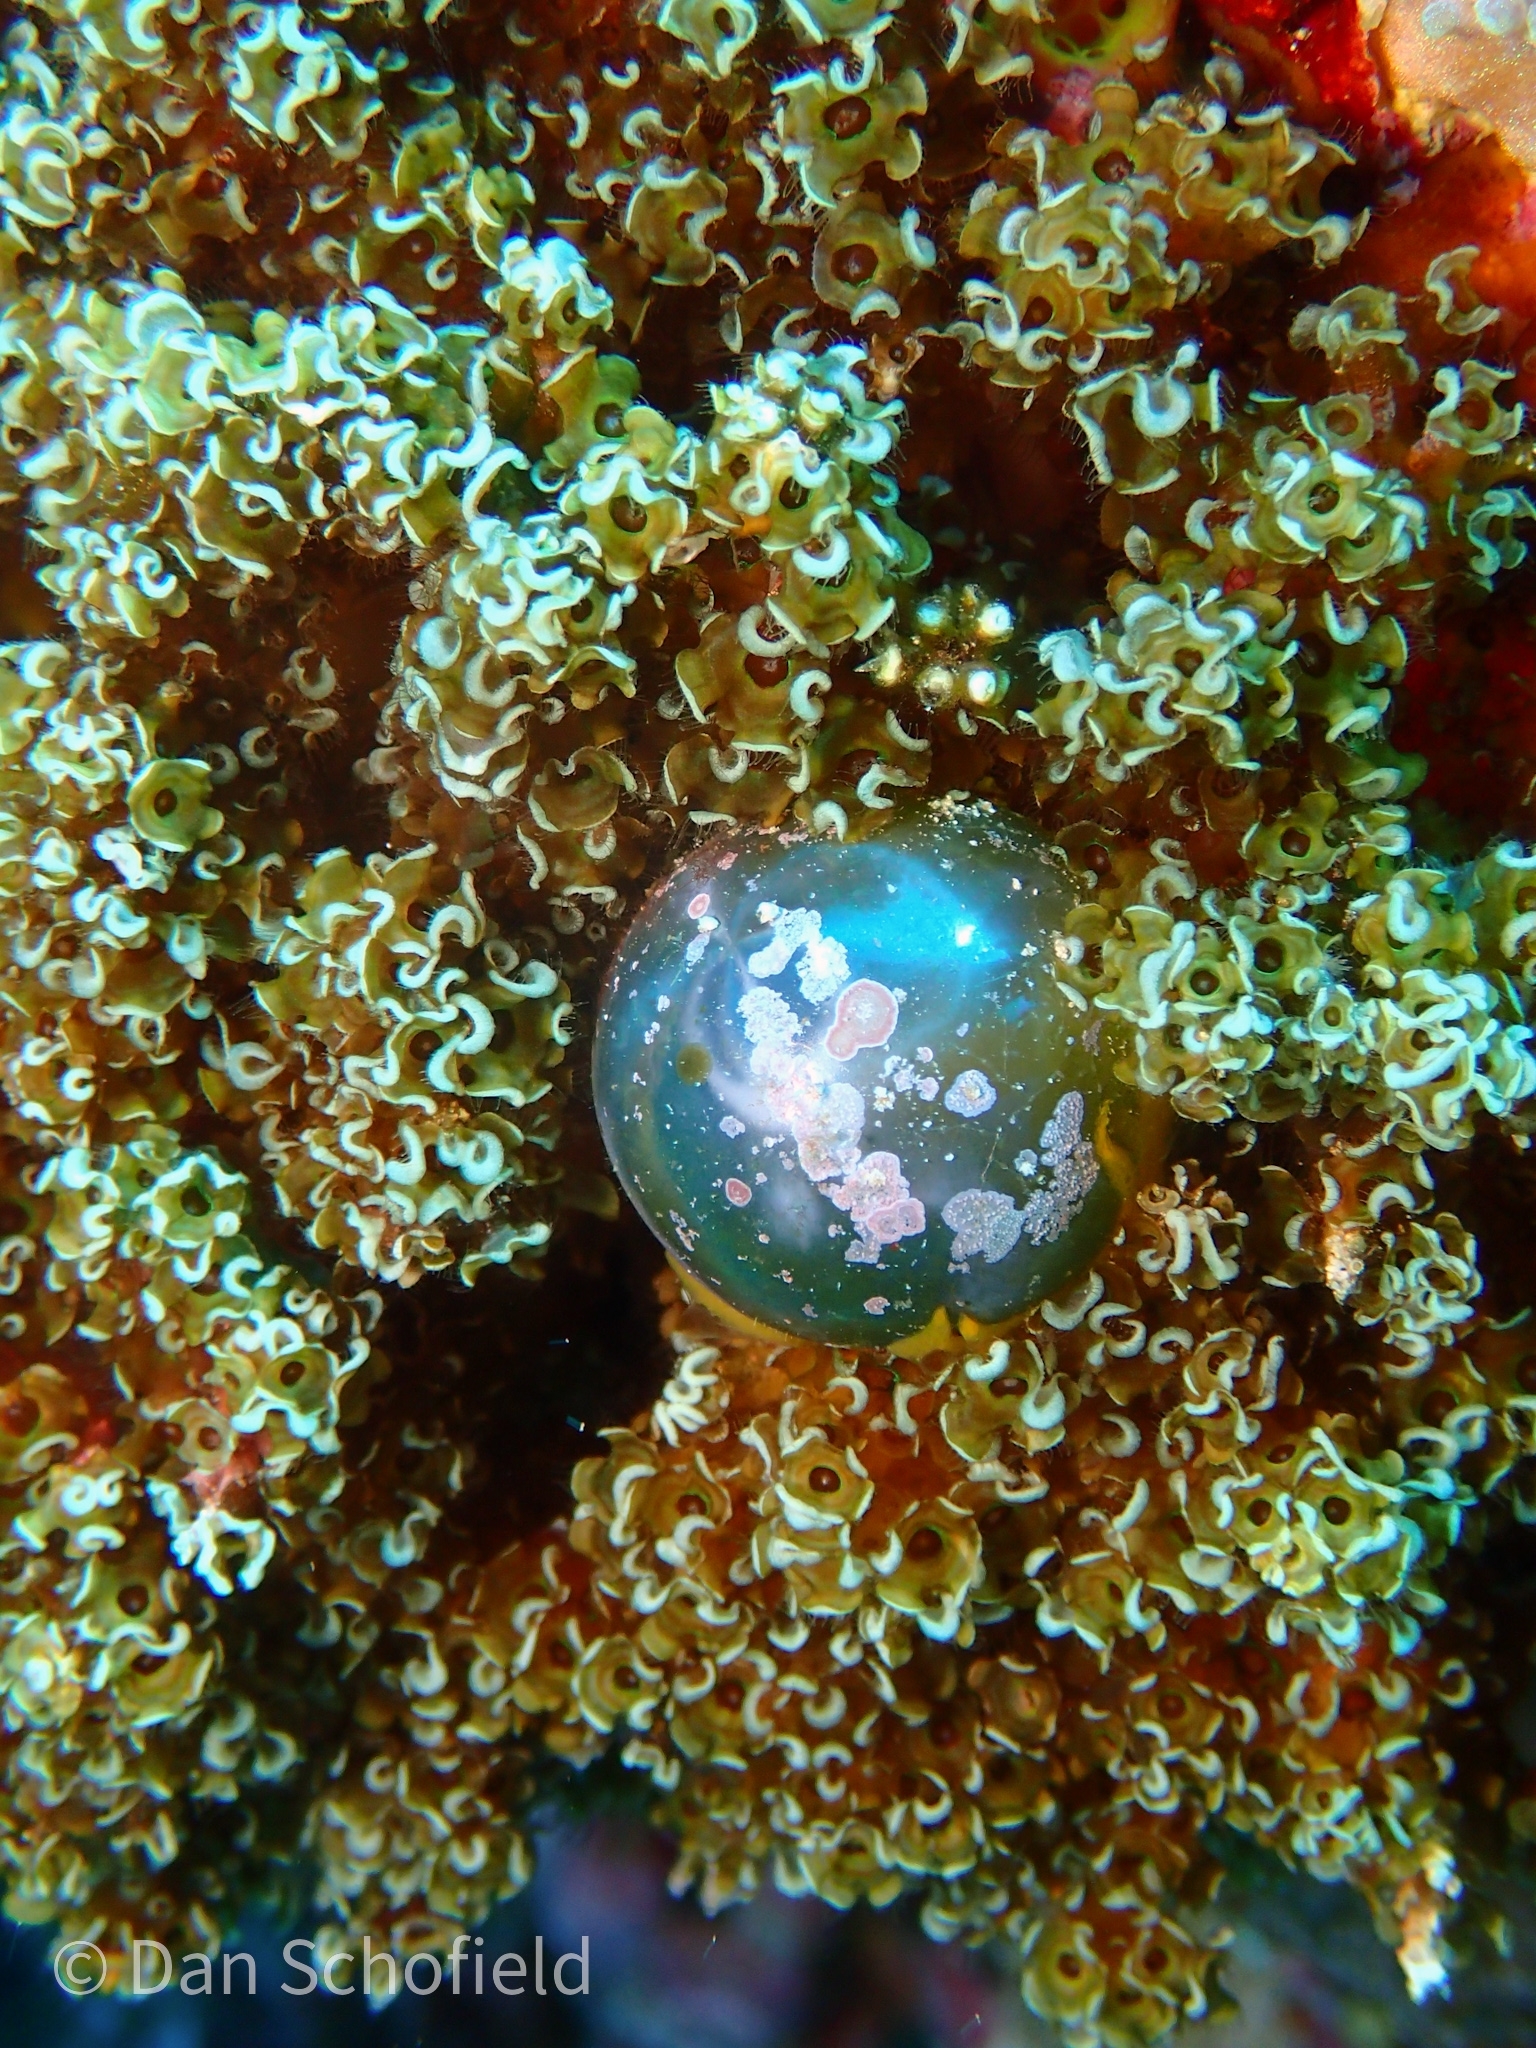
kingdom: Plantae
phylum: Chlorophyta
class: Ulvophyceae
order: Siphonocladales
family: Valoniaceae
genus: Valonia
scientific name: Valonia ventricosa
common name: Sea pearl
